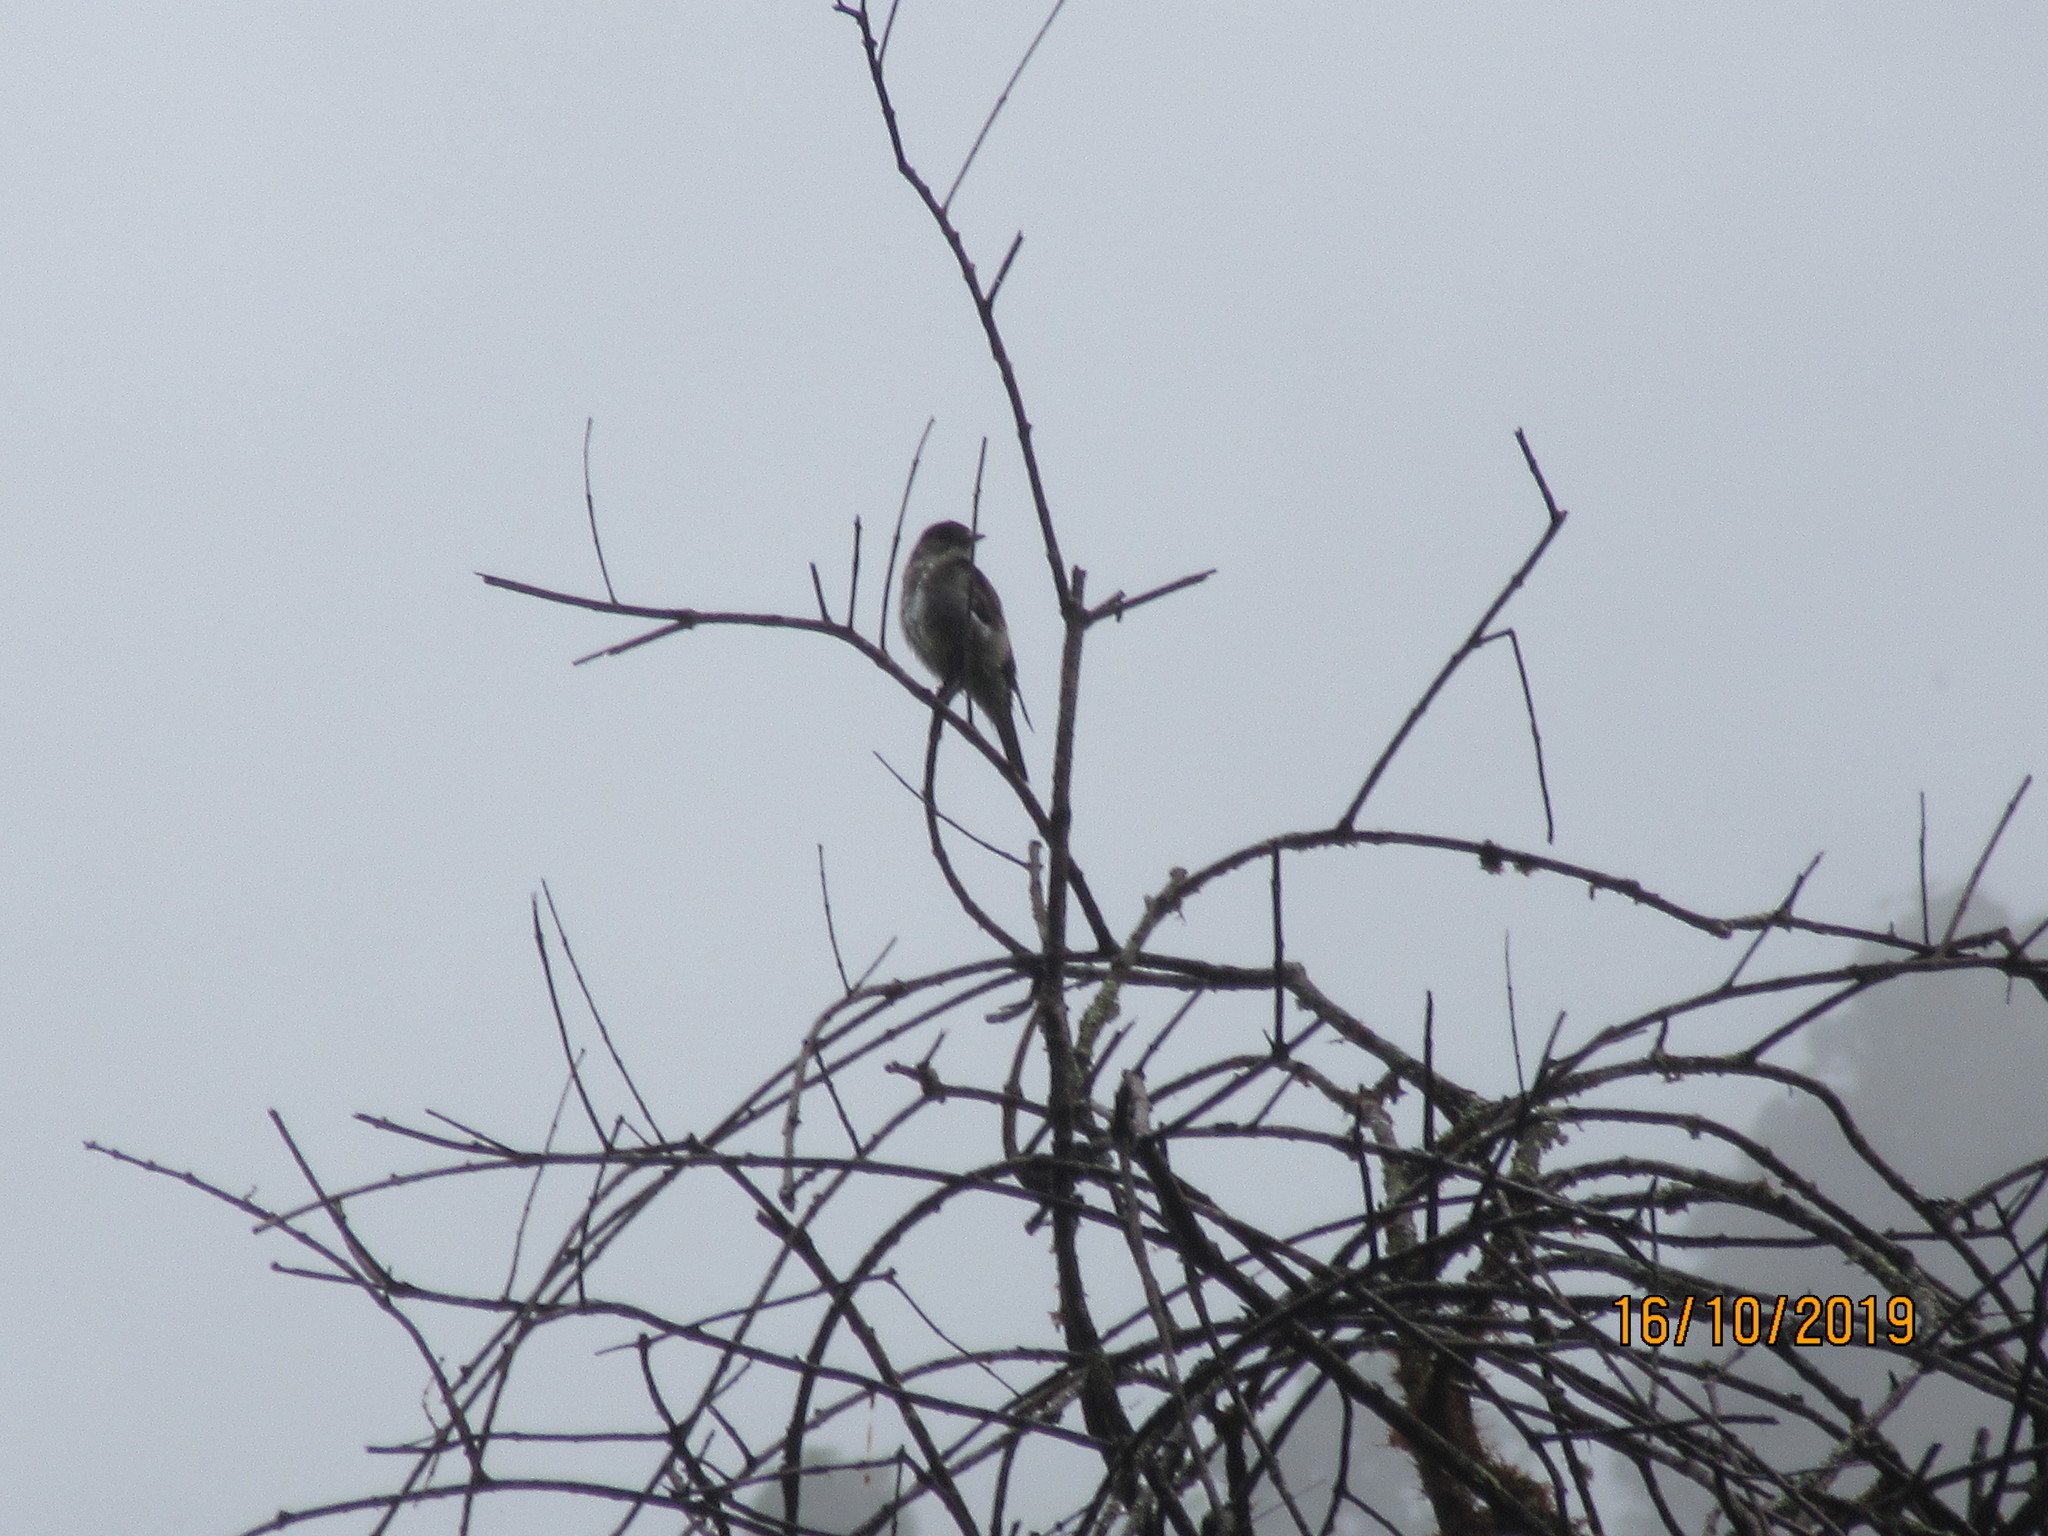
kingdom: Animalia
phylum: Chordata
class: Aves
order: Passeriformes
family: Tyrannidae
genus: Contopus
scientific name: Contopus cooperi
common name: Olive-sided flycatcher
